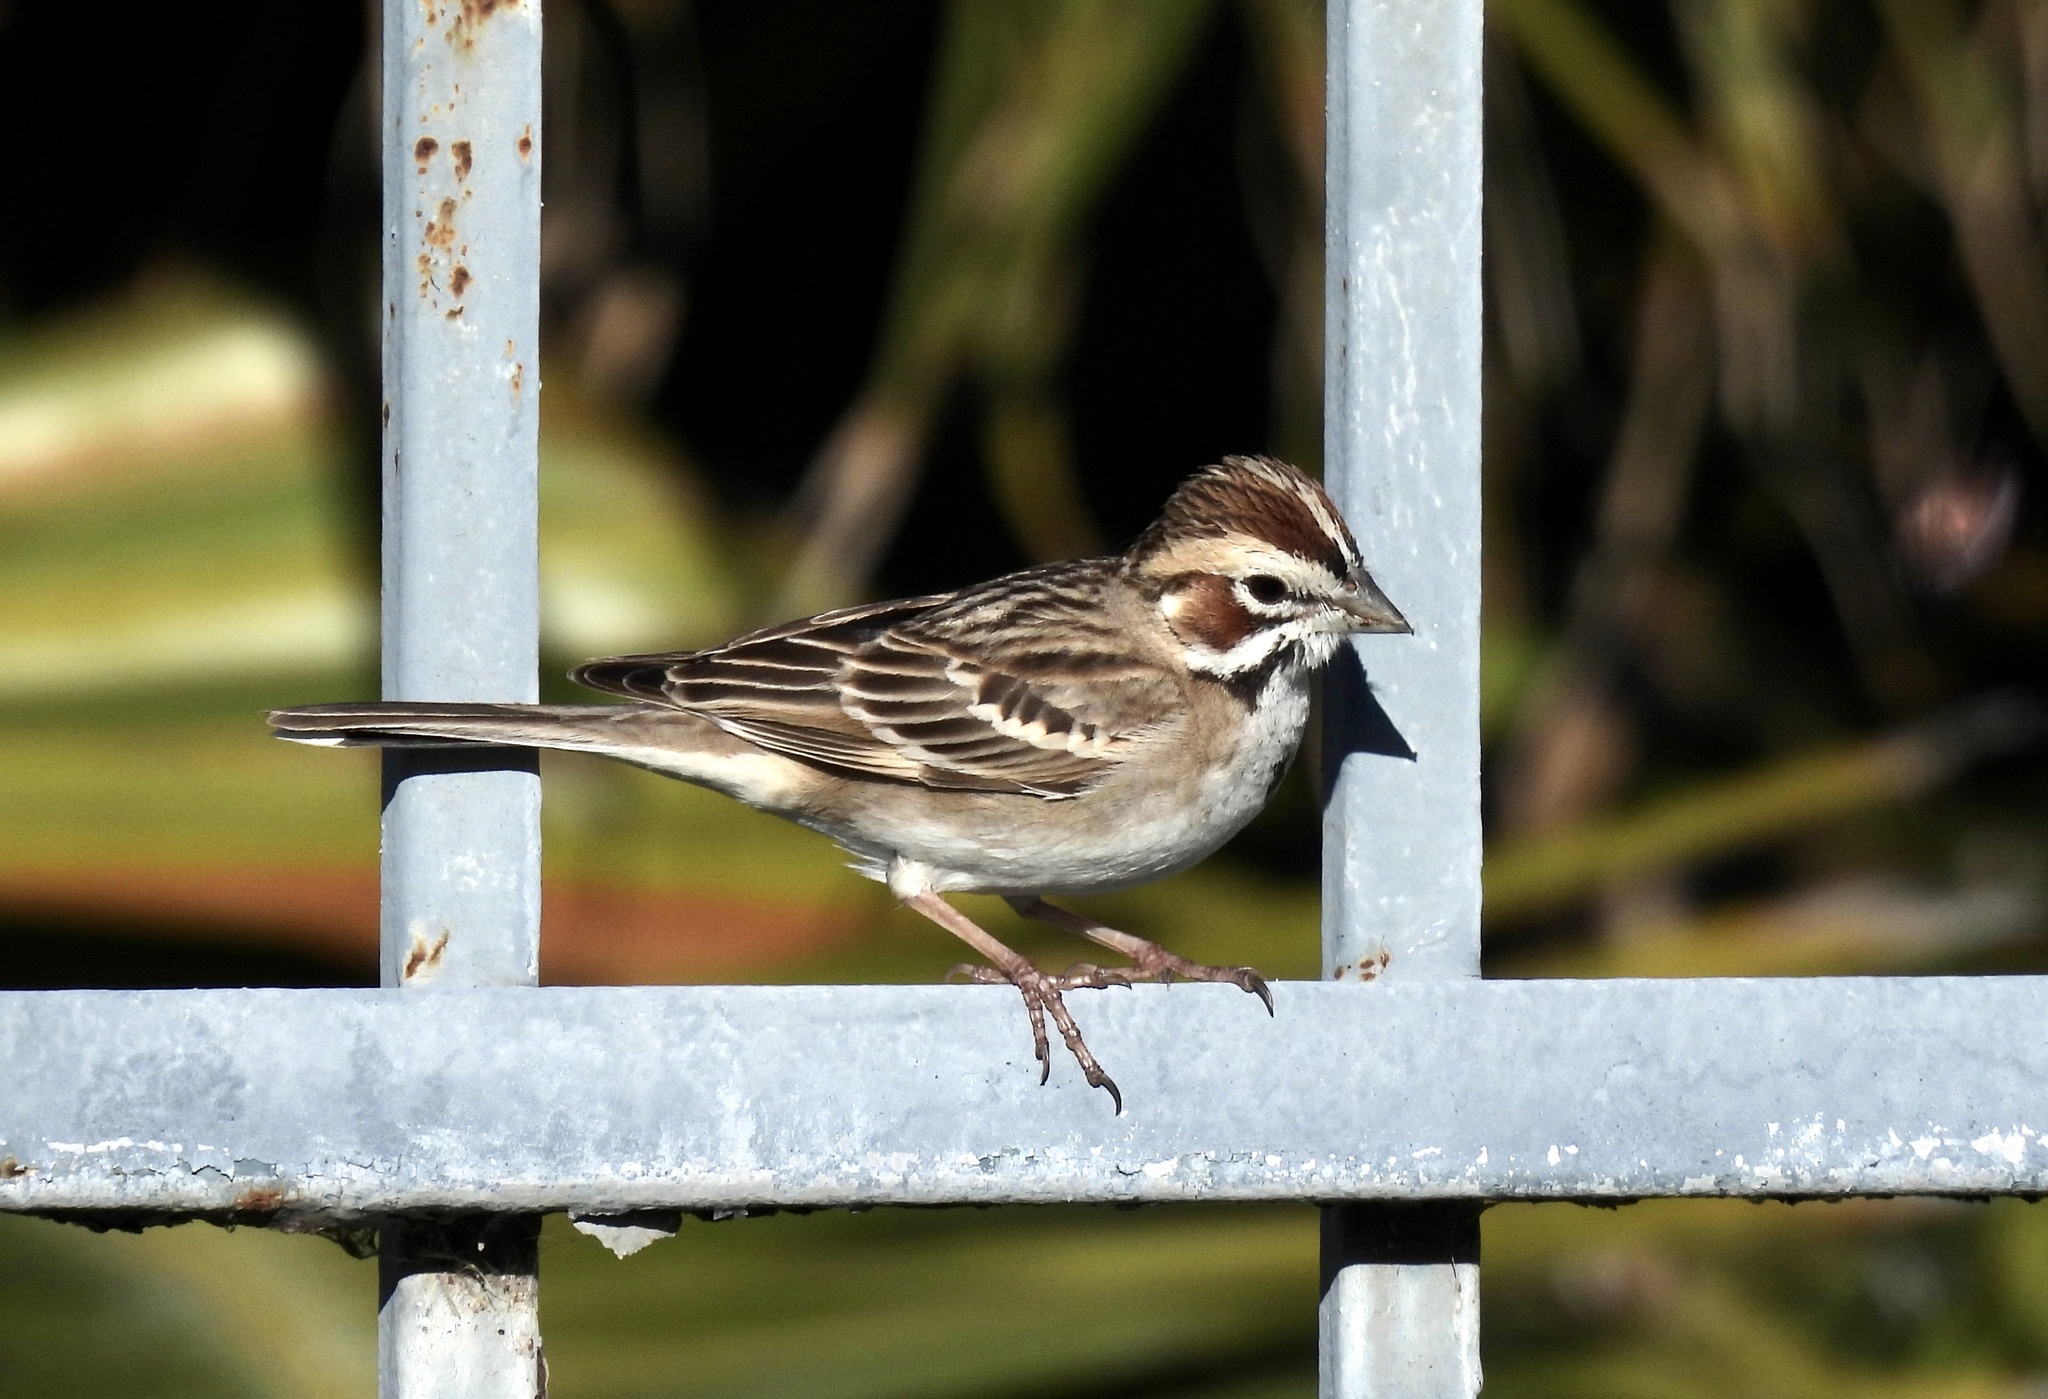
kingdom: Animalia
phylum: Chordata
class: Aves
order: Passeriformes
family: Passerellidae
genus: Chondestes
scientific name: Chondestes grammacus
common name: Lark sparrow
